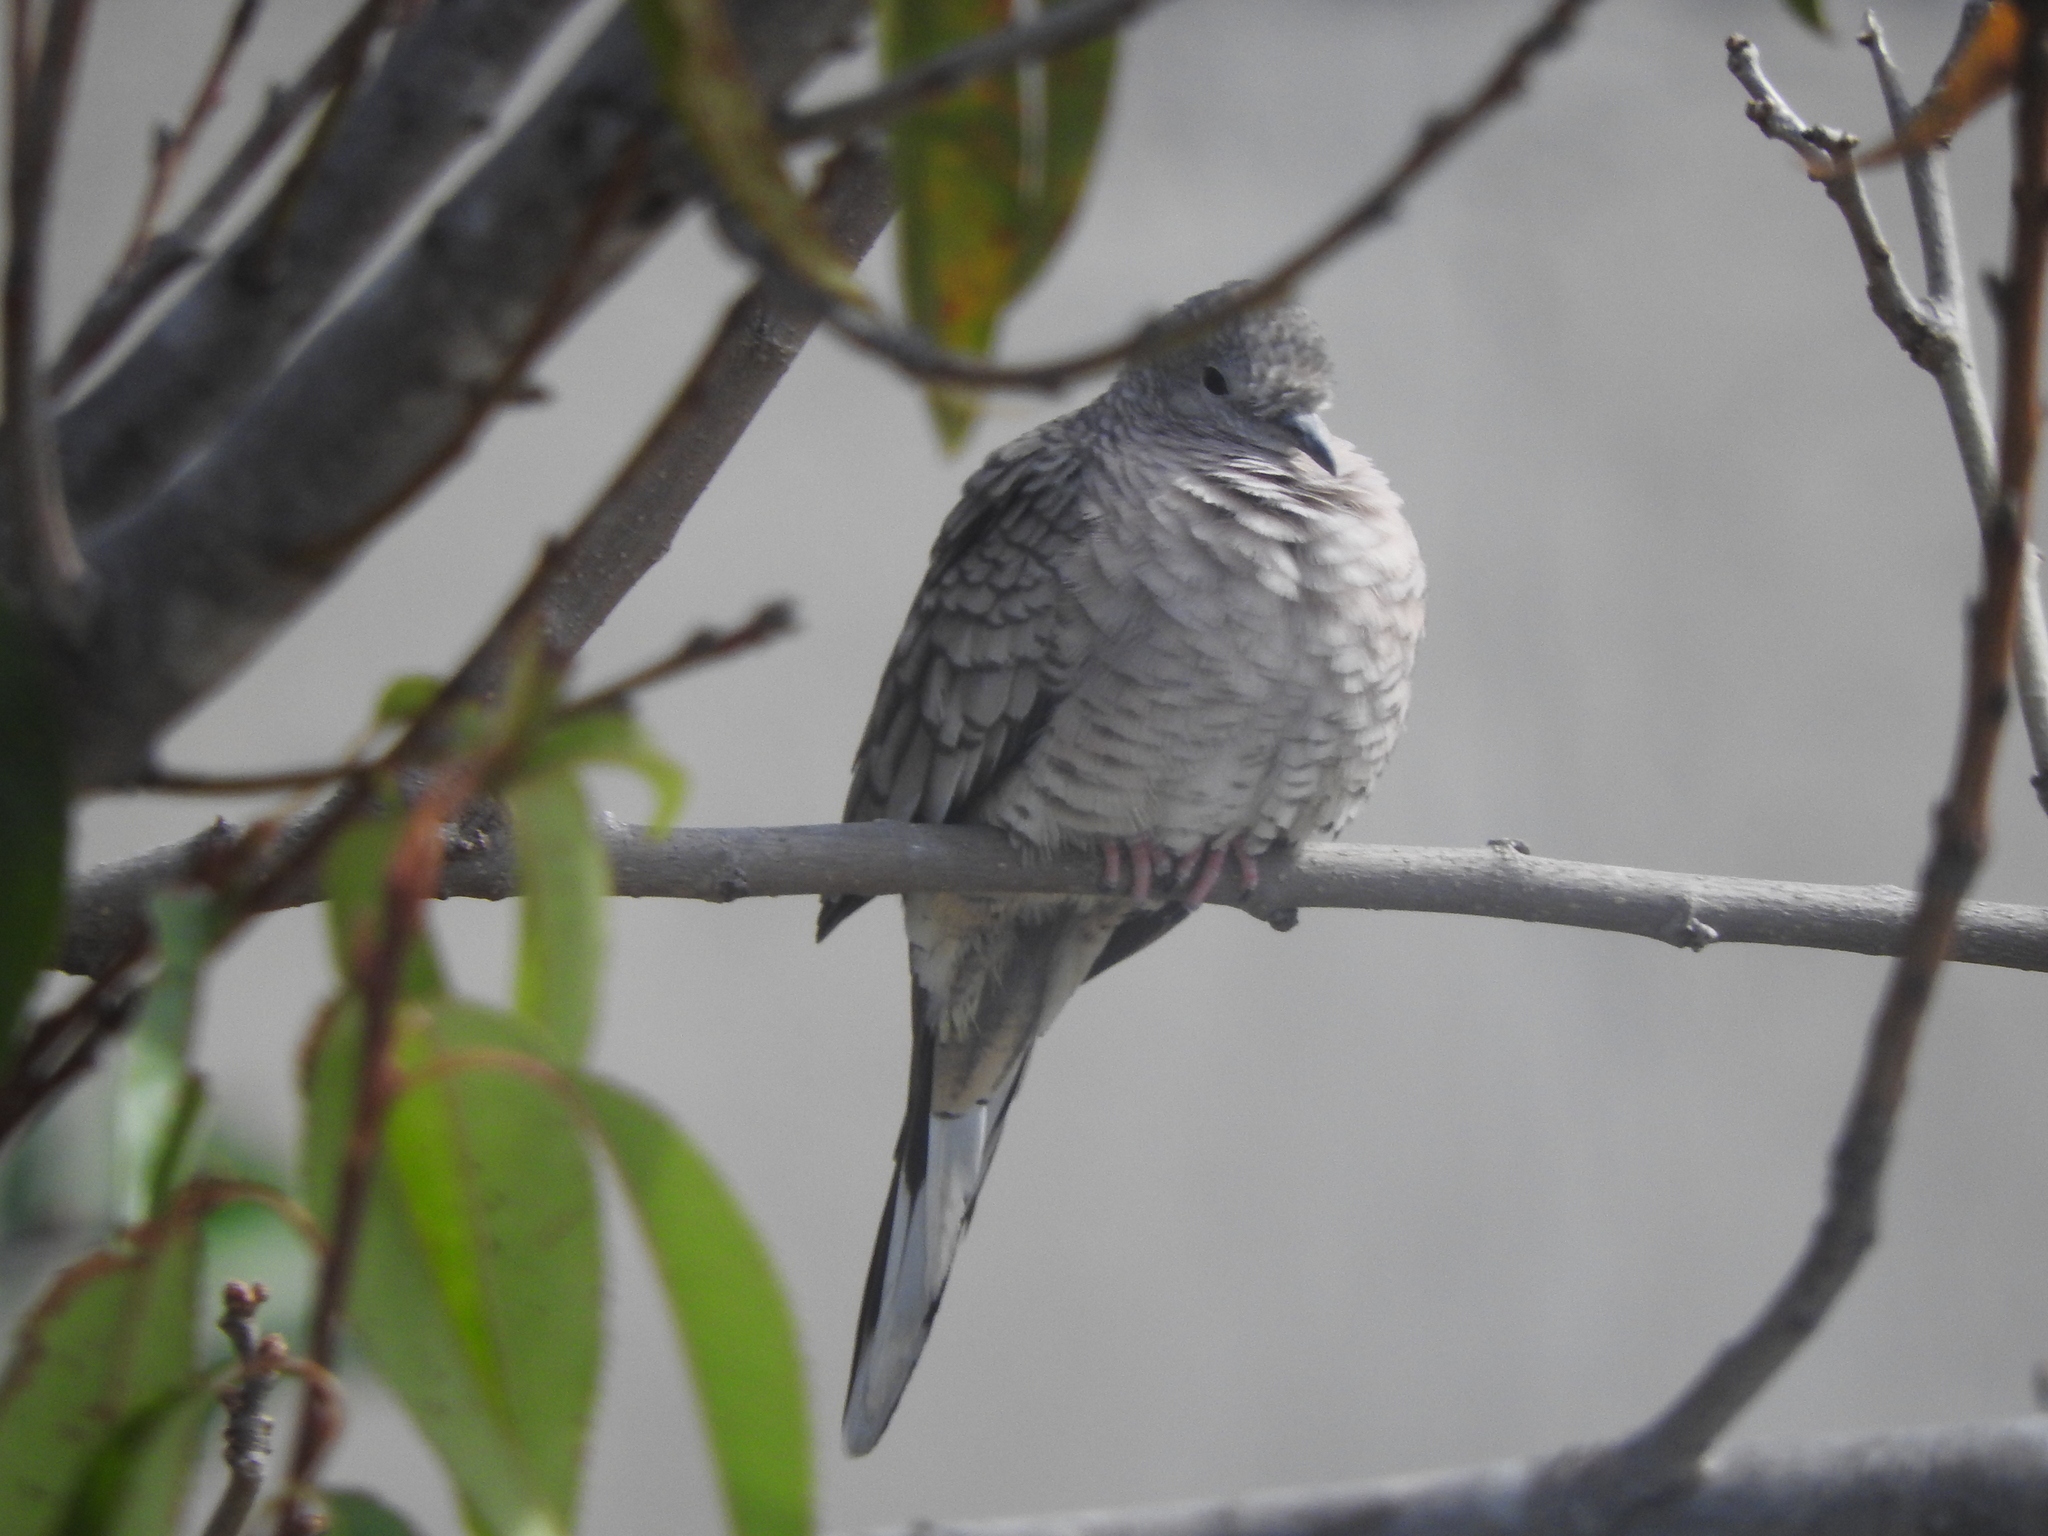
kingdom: Animalia
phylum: Chordata
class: Aves
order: Columbiformes
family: Columbidae
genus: Columbina
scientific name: Columbina inca
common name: Inca dove
